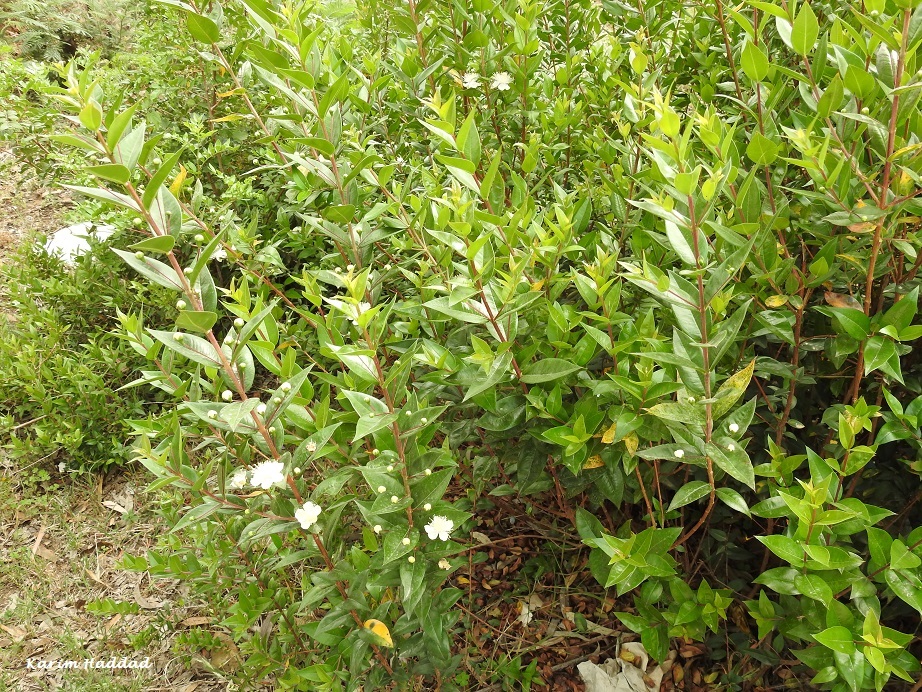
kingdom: Plantae
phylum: Tracheophyta
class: Magnoliopsida
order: Myrtales
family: Myrtaceae
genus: Myrtus
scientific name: Myrtus communis
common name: Myrtle
